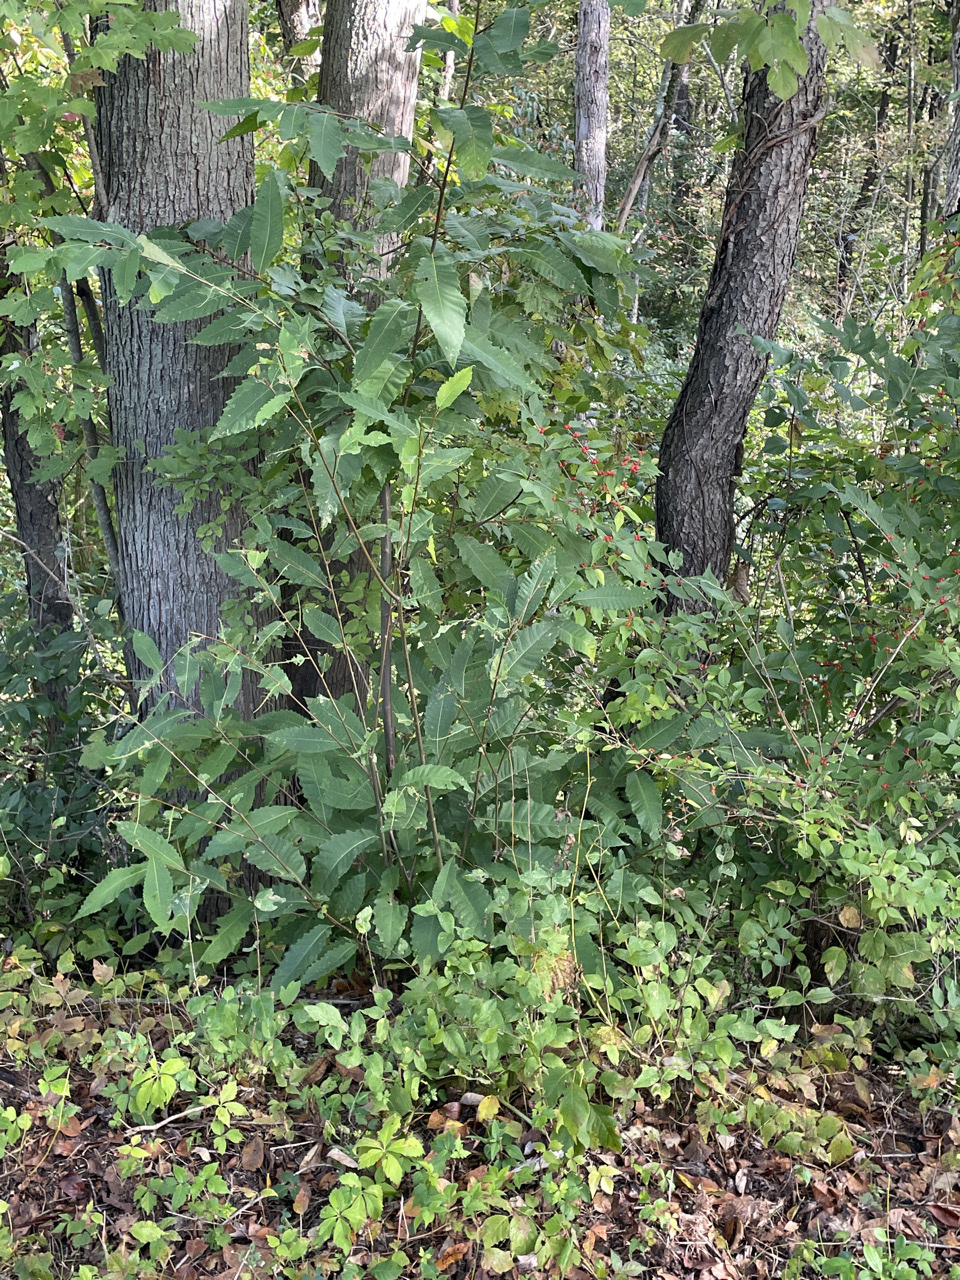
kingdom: Plantae
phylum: Tracheophyta
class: Magnoliopsida
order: Fagales
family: Fagaceae
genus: Castanea
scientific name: Castanea dentata
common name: American chestnut
